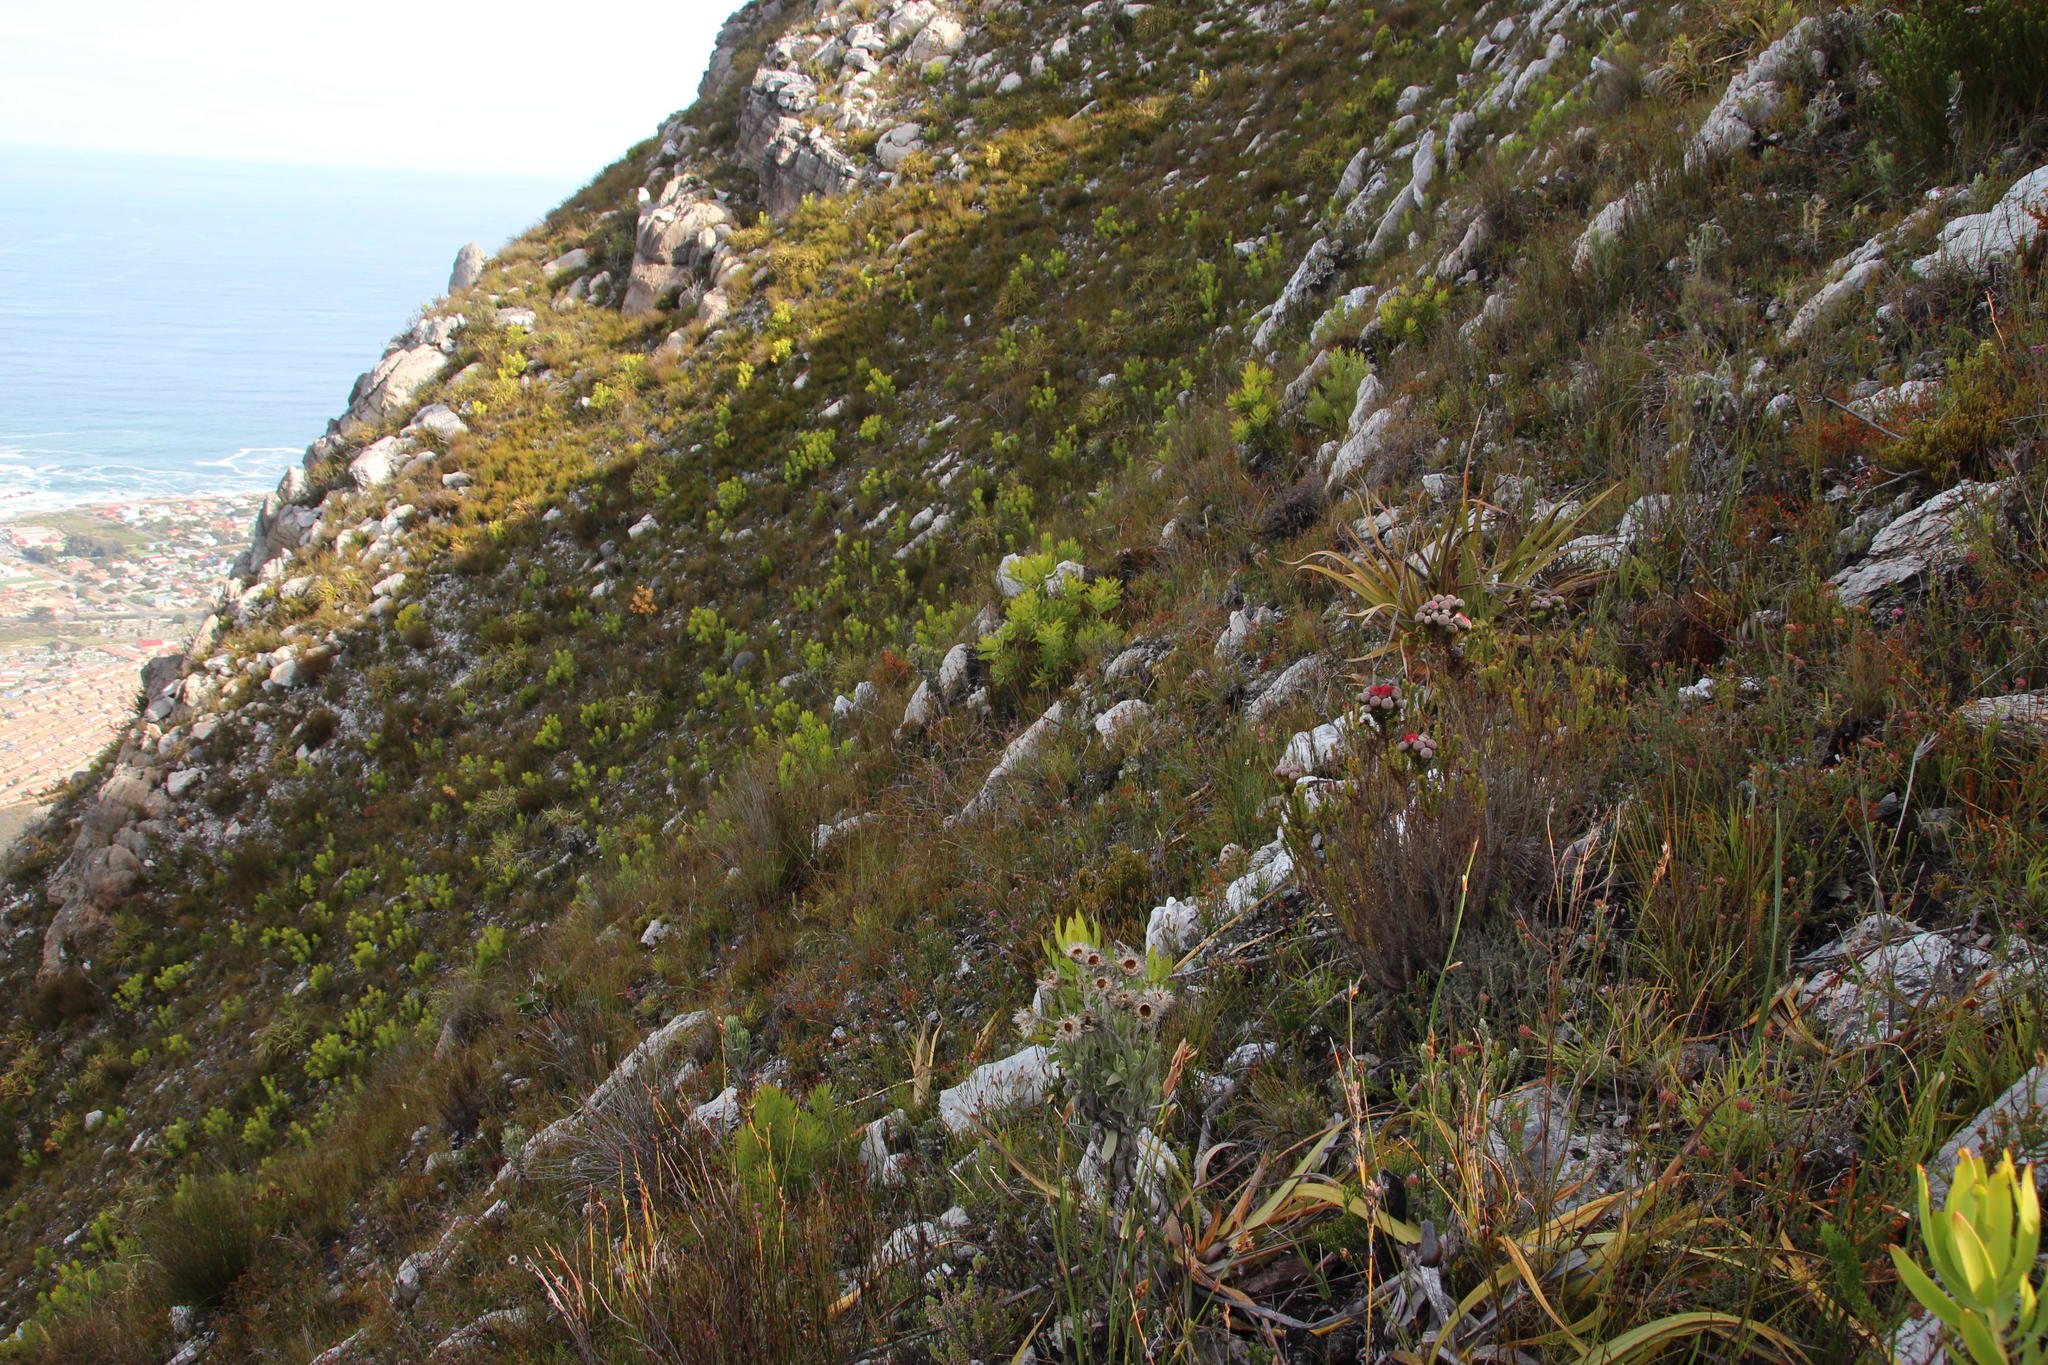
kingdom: Plantae
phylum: Tracheophyta
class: Magnoliopsida
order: Proteales
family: Proteaceae
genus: Leucadendron
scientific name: Leucadendron microcephalum
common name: Oilbract conebush
